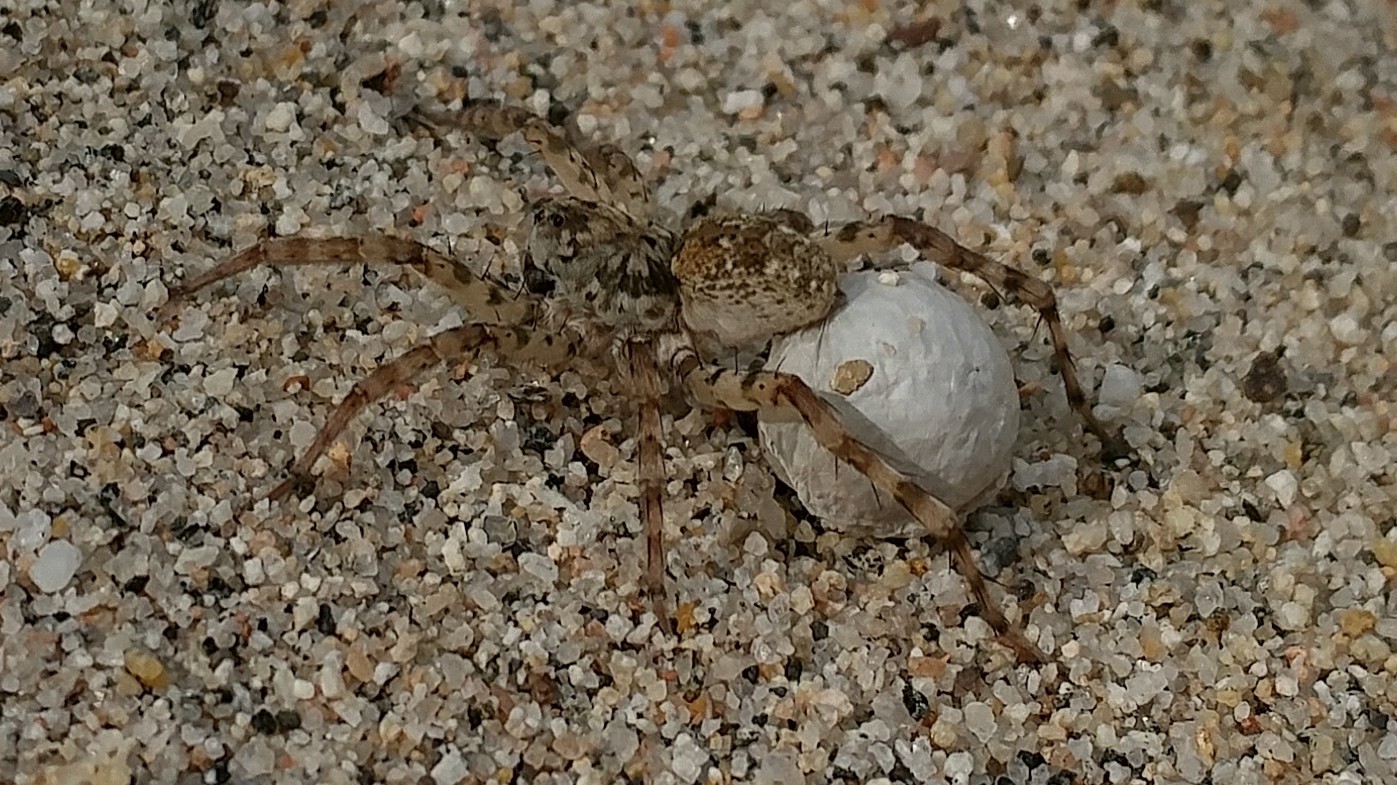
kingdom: Animalia
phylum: Arthropoda
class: Arachnida
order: Araneae
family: Lycosidae
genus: Arctosa
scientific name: Arctosa littoralis
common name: Wolf spiders
